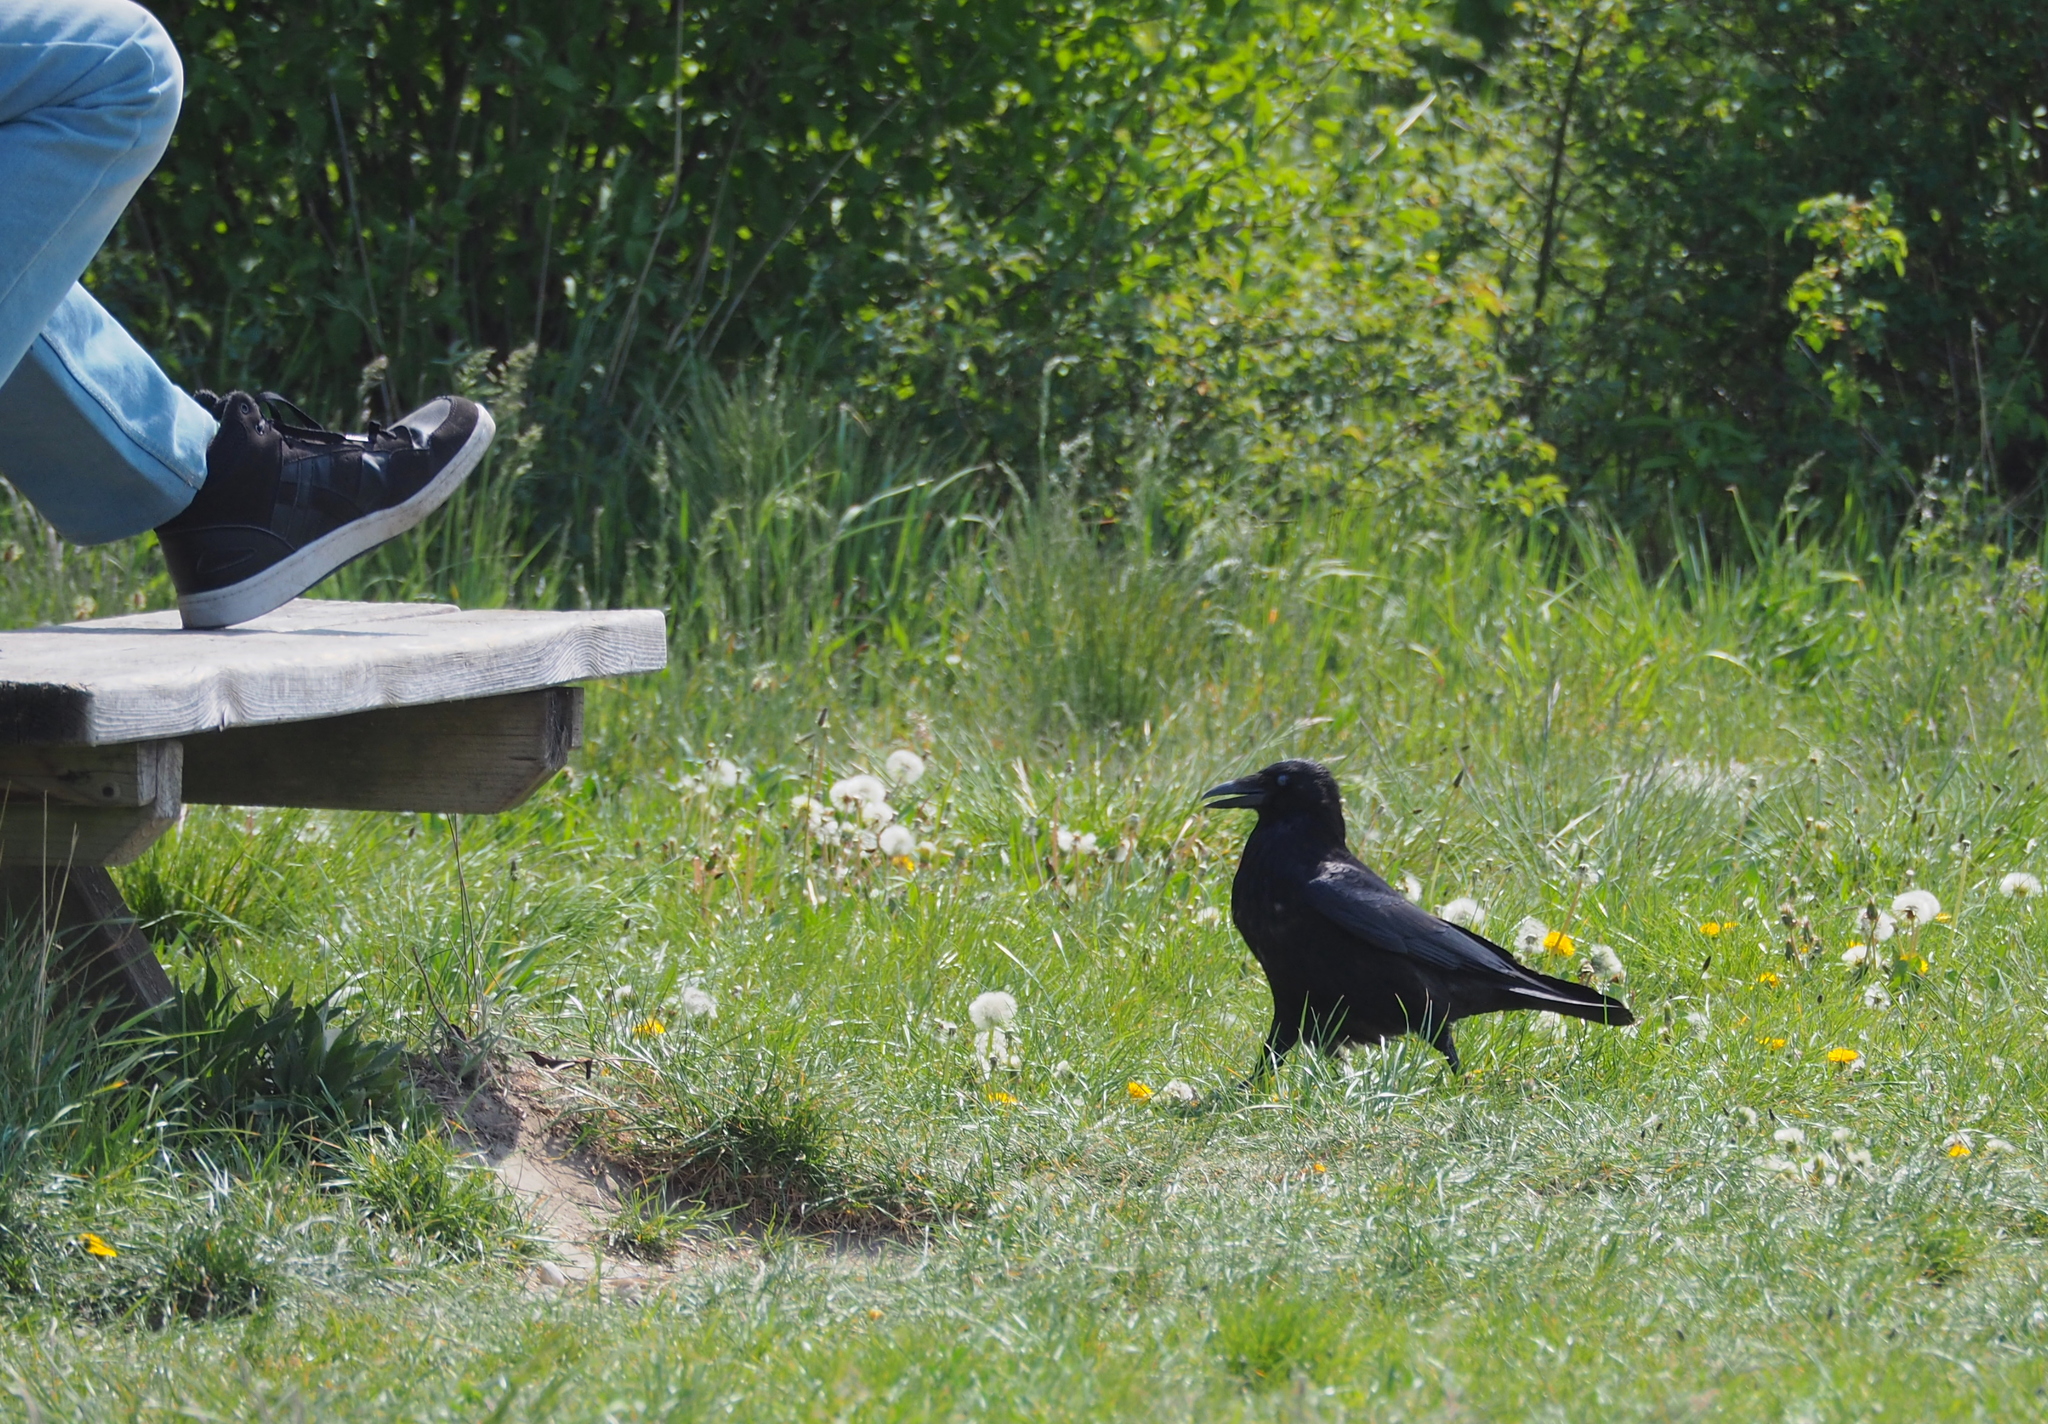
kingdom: Animalia
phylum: Chordata
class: Aves
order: Passeriformes
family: Corvidae
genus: Corvus
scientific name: Corvus corone
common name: Carrion crow
